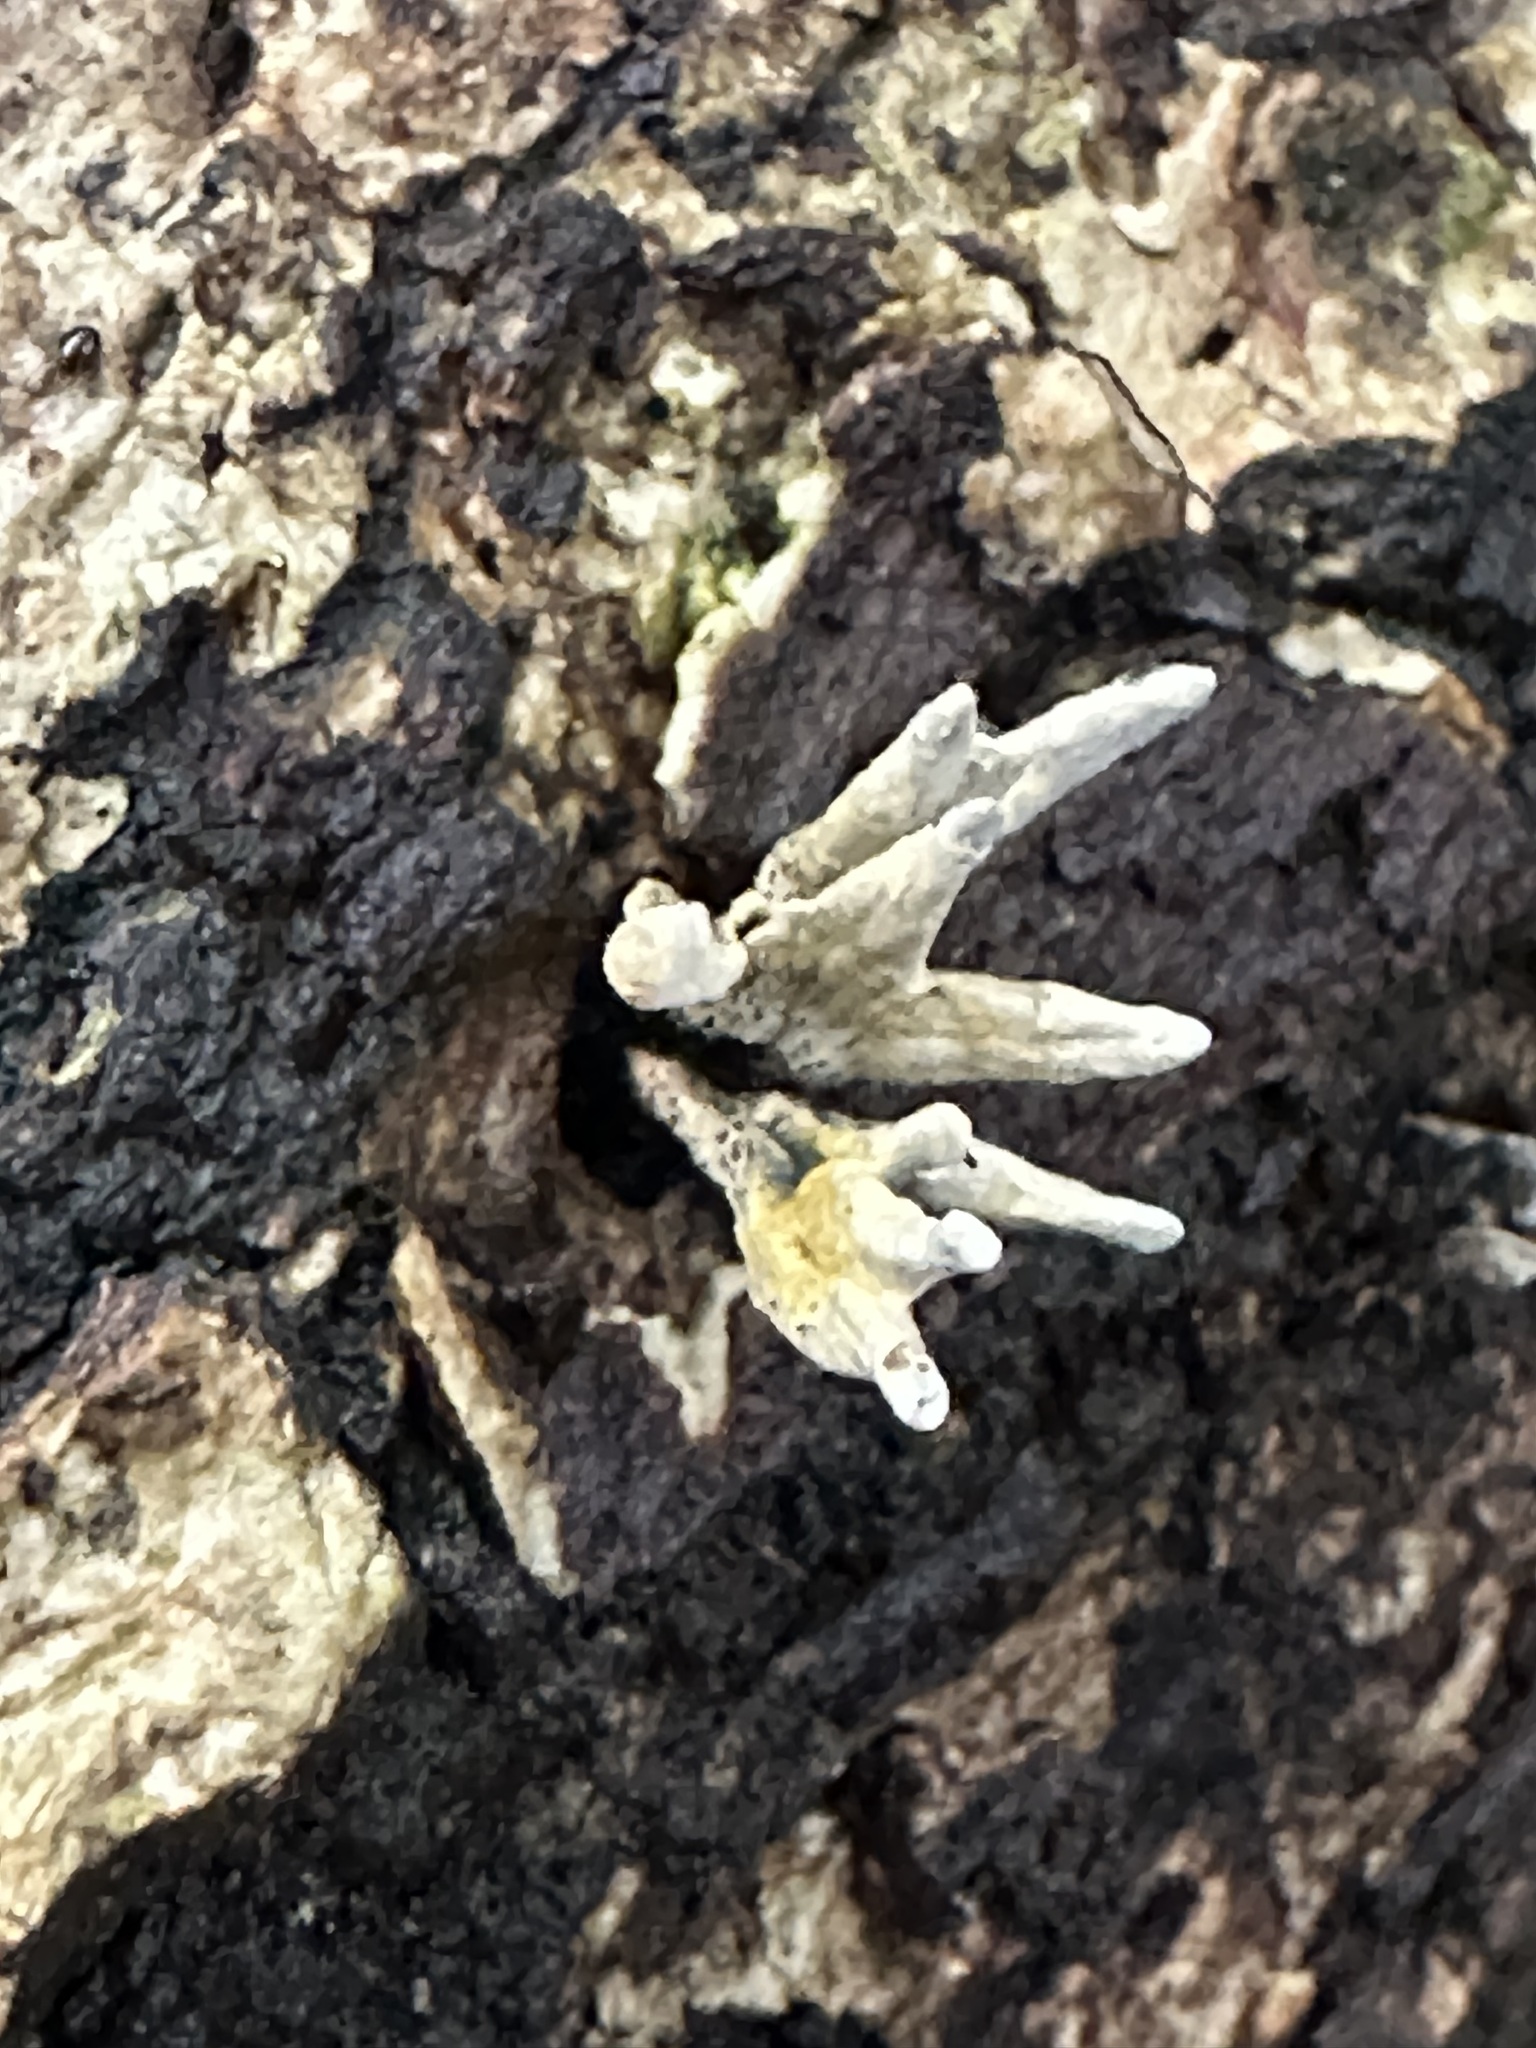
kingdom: Fungi
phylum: Ascomycota
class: Sordariomycetes
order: Xylariales
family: Xylariaceae
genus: Xylaria
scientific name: Xylaria hypoxylon
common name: Candle-snuff fungus
